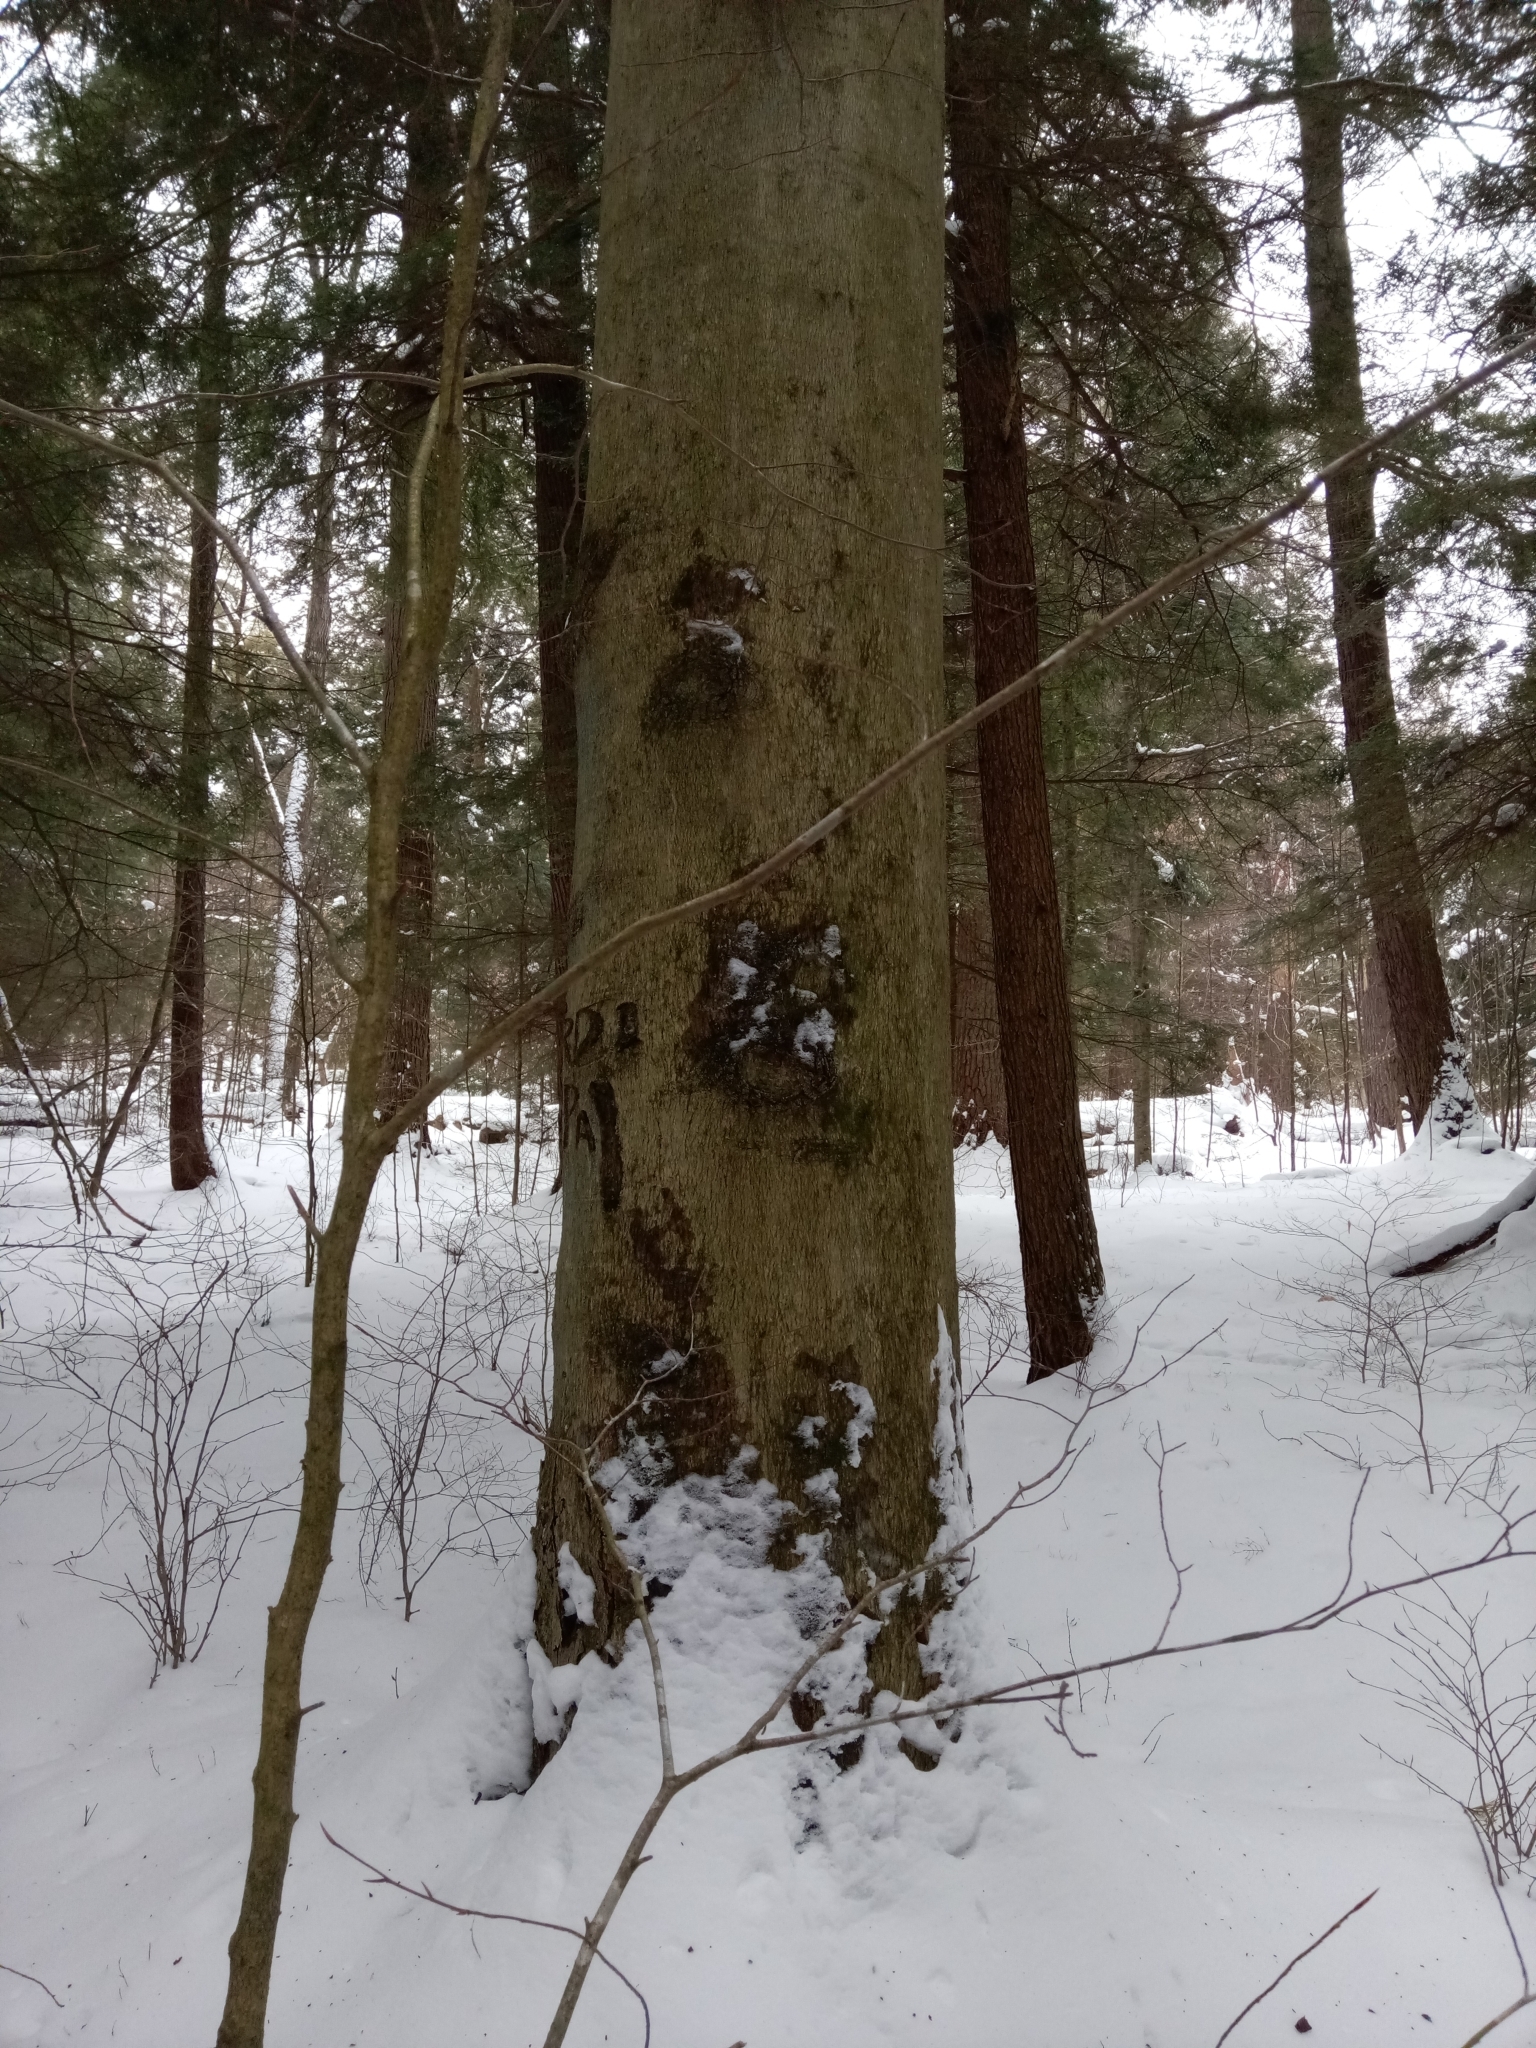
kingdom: Plantae
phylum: Tracheophyta
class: Magnoliopsida
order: Fagales
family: Fagaceae
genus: Fagus
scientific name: Fagus grandifolia
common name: American beech
